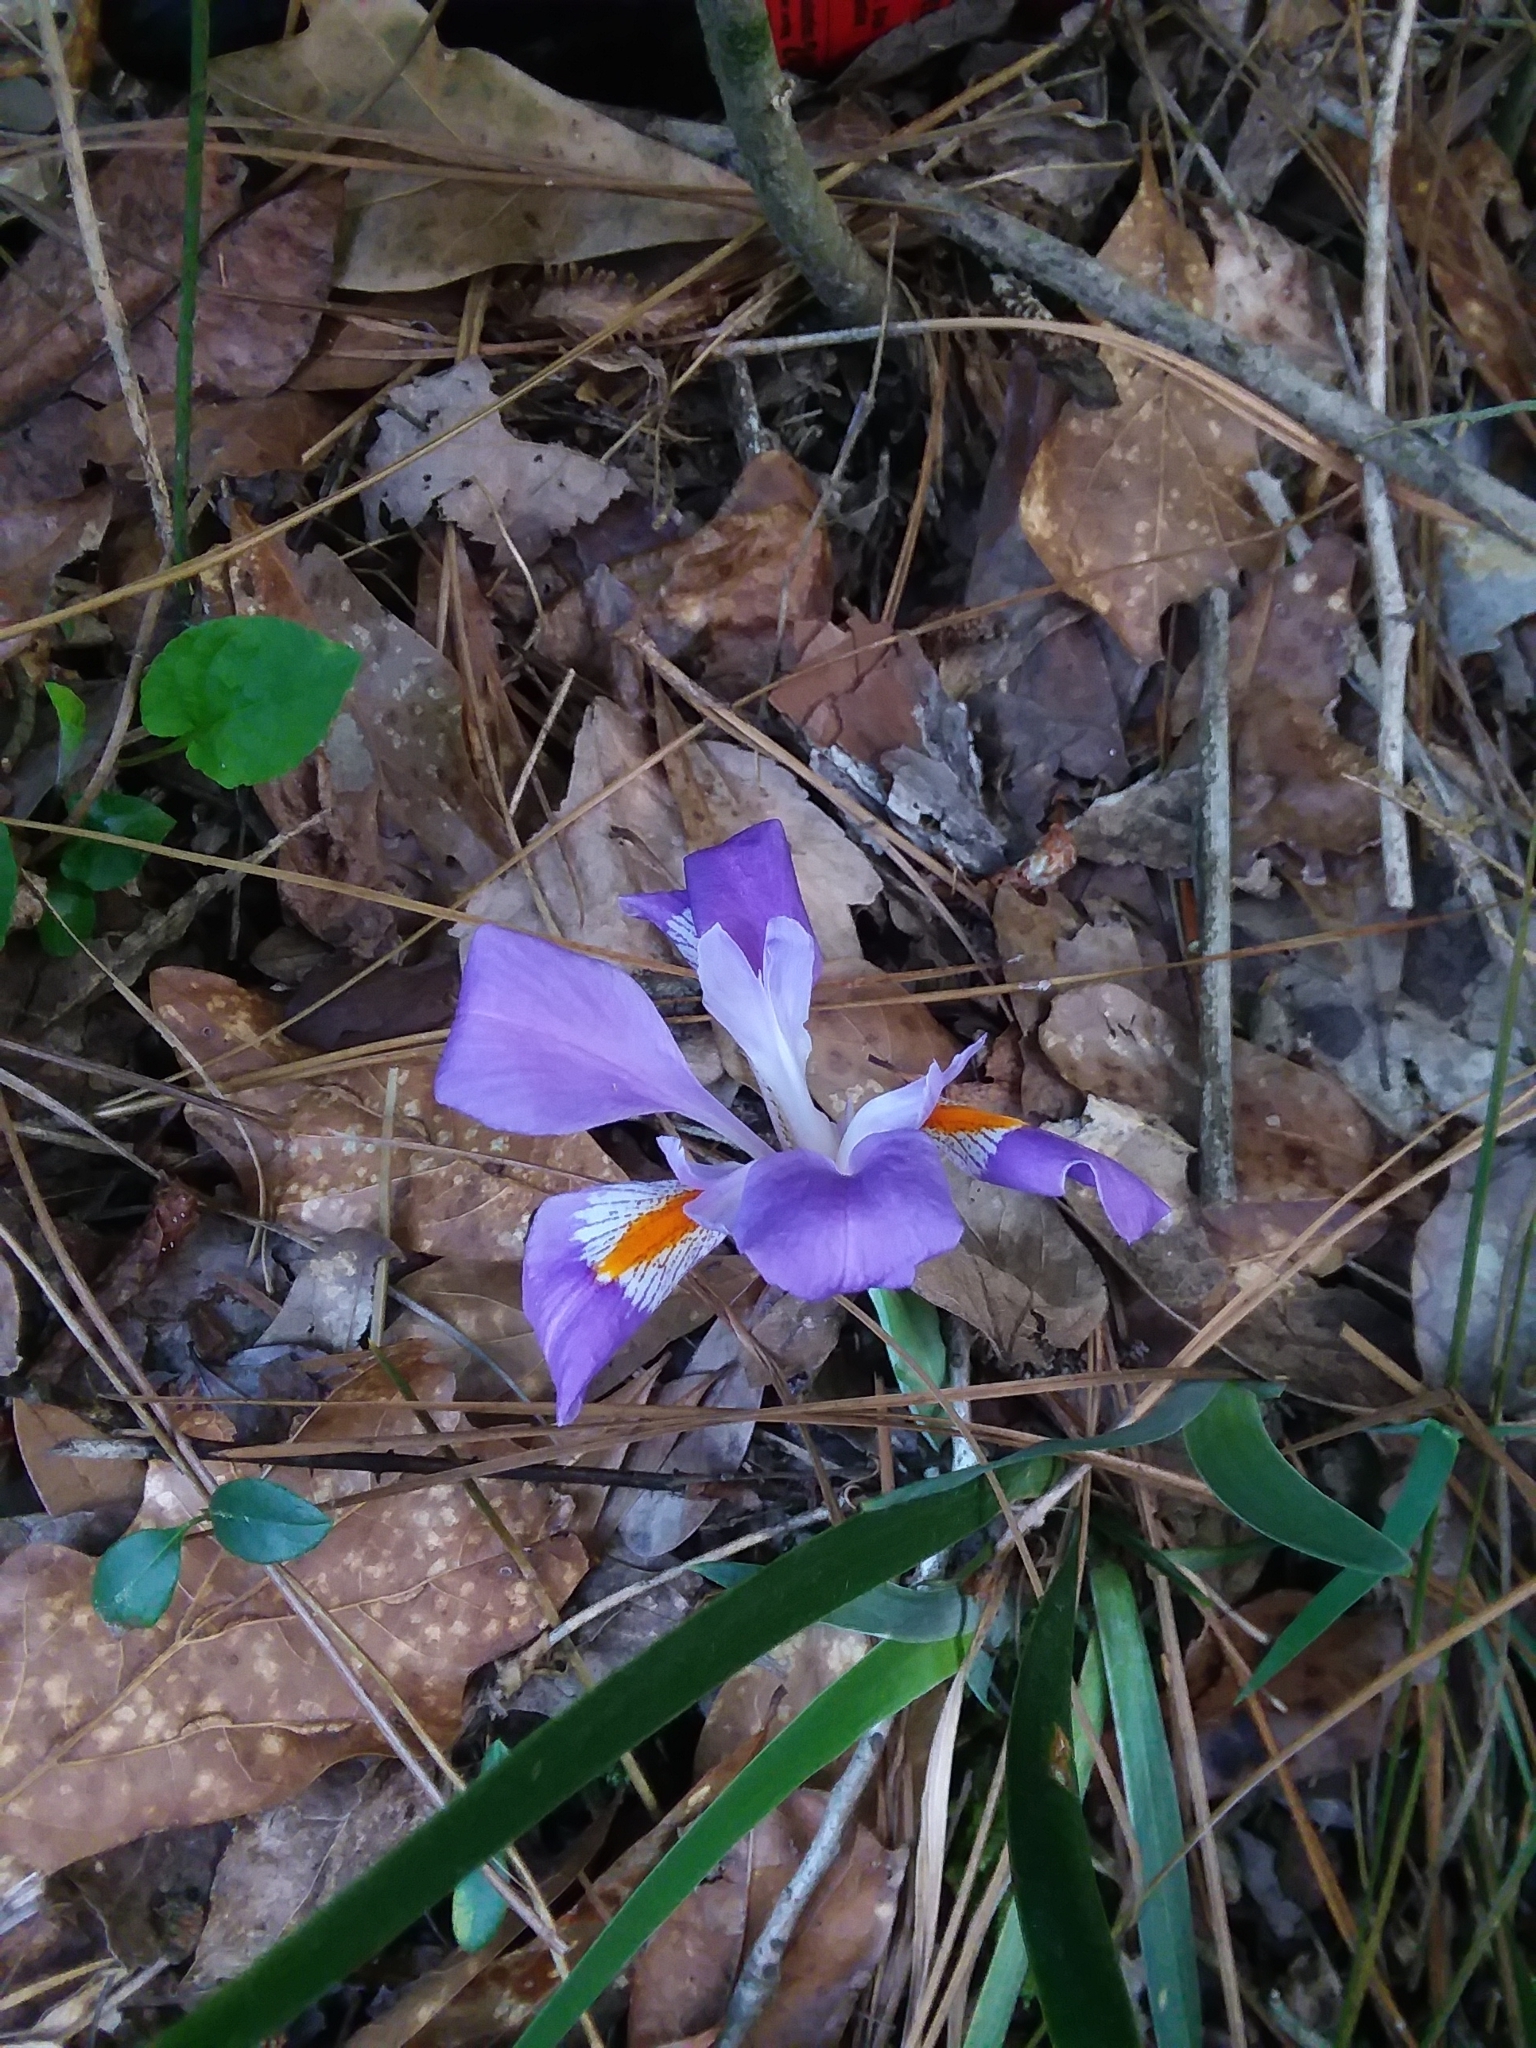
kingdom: Plantae
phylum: Tracheophyta
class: Liliopsida
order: Asparagales
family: Iridaceae
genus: Iris
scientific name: Iris verna
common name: Dwarf iris
